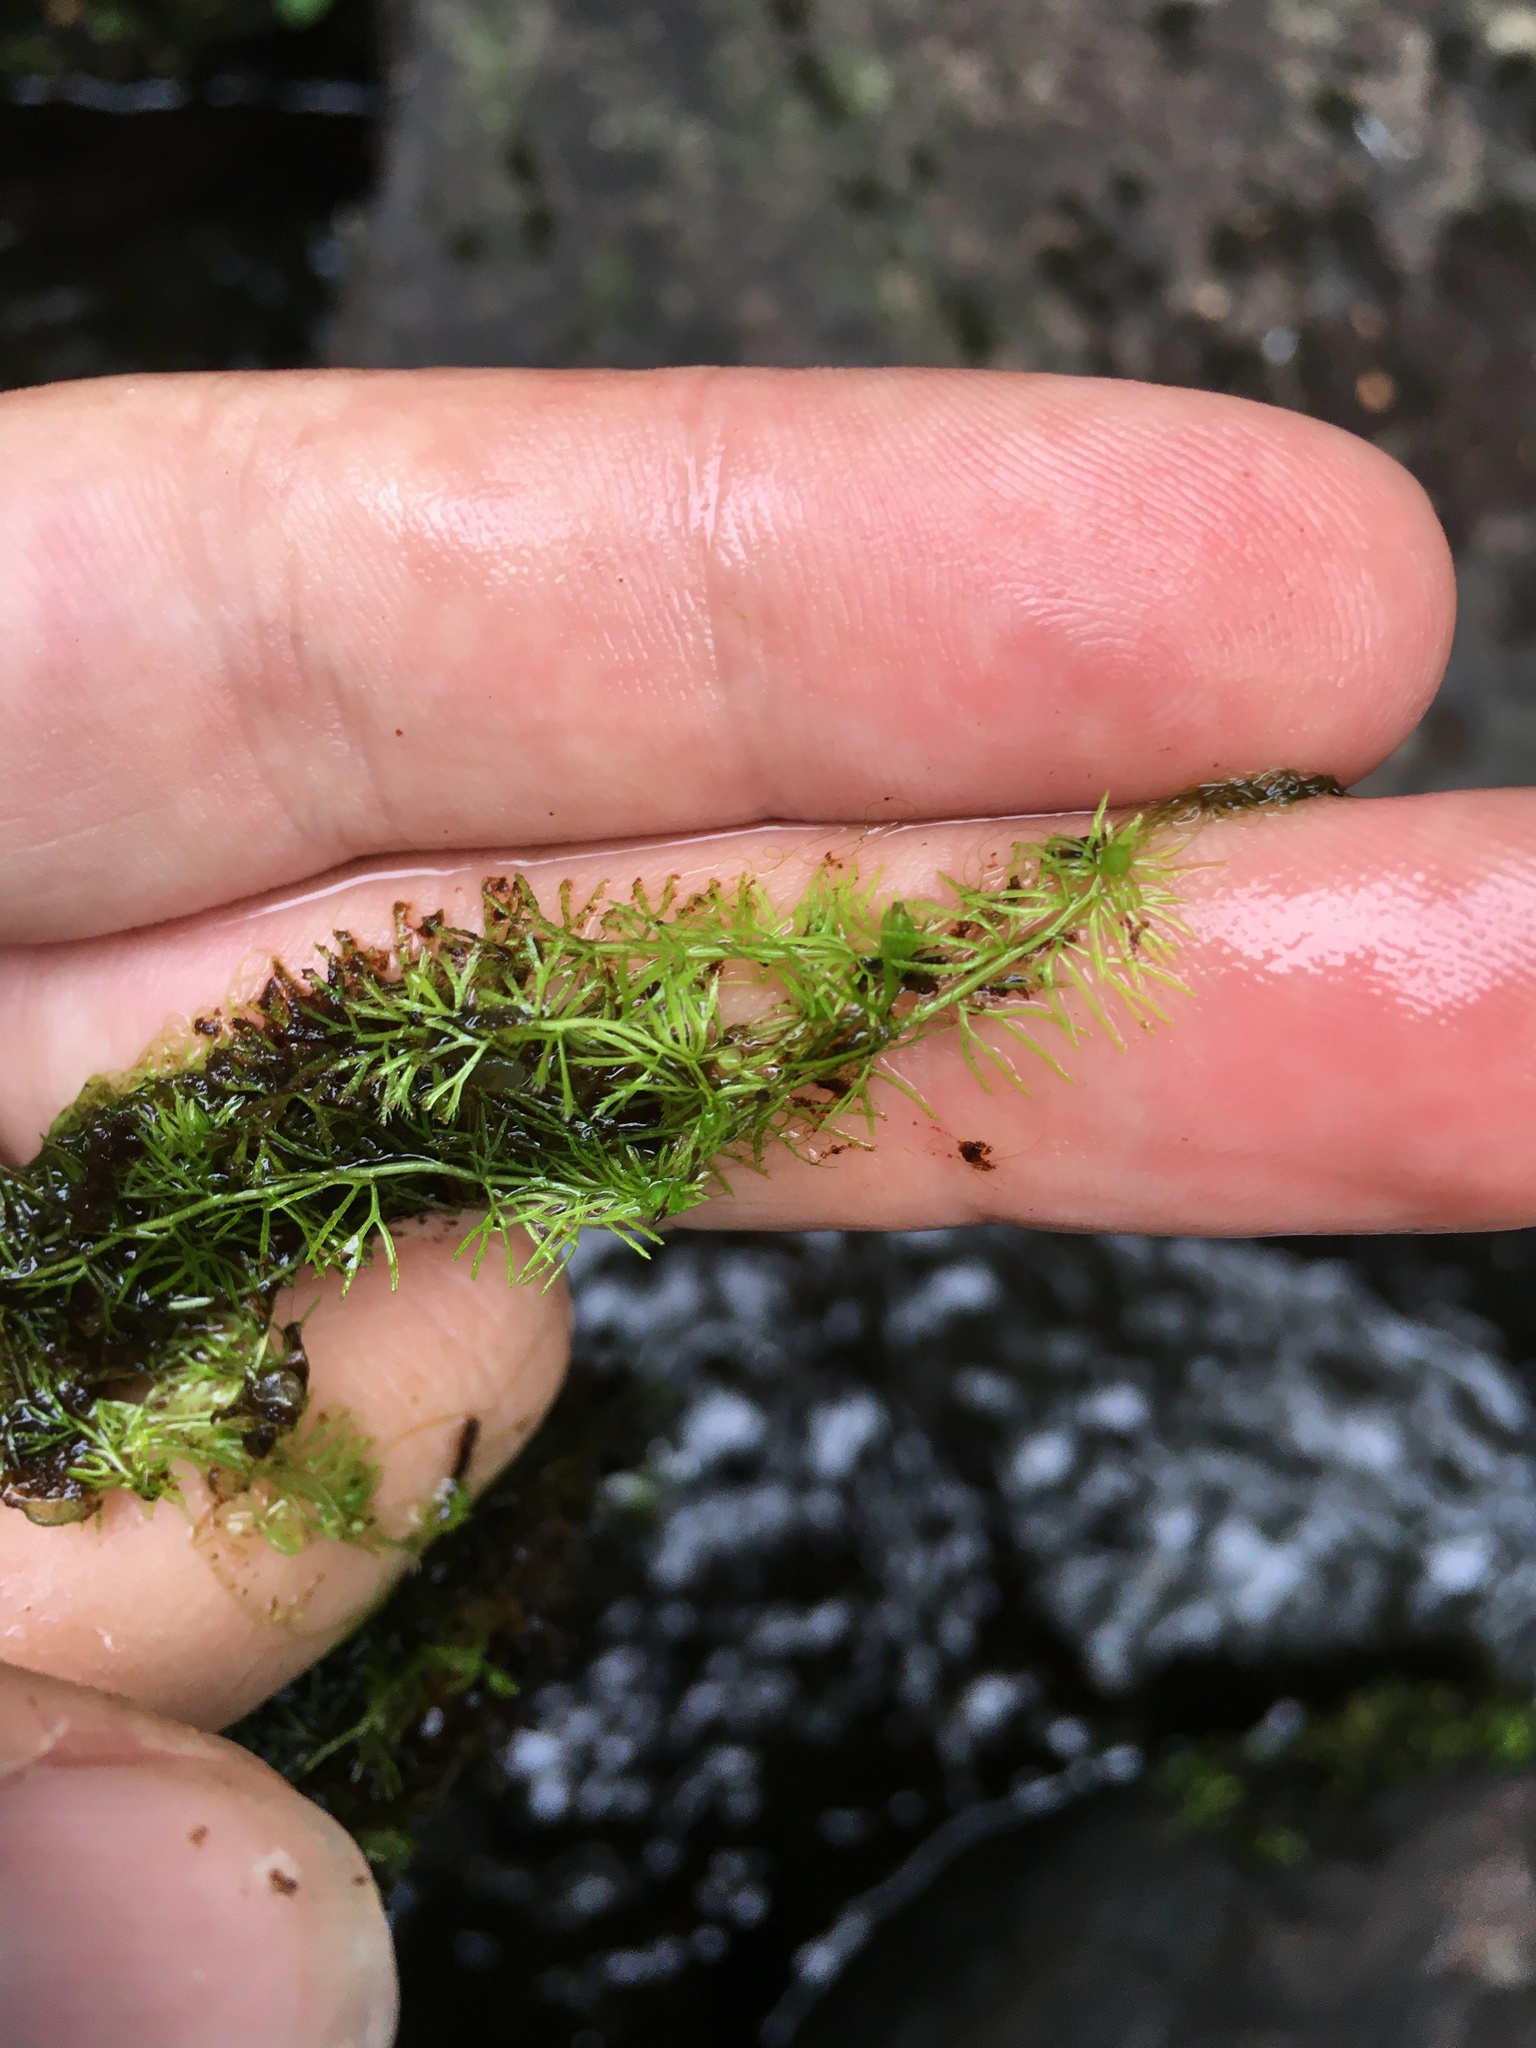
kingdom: Plantae
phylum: Tracheophyta
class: Magnoliopsida
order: Lamiales
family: Lentibulariaceae
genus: Utricularia
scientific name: Utricularia intermedia
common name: Intermediate bladderwort
